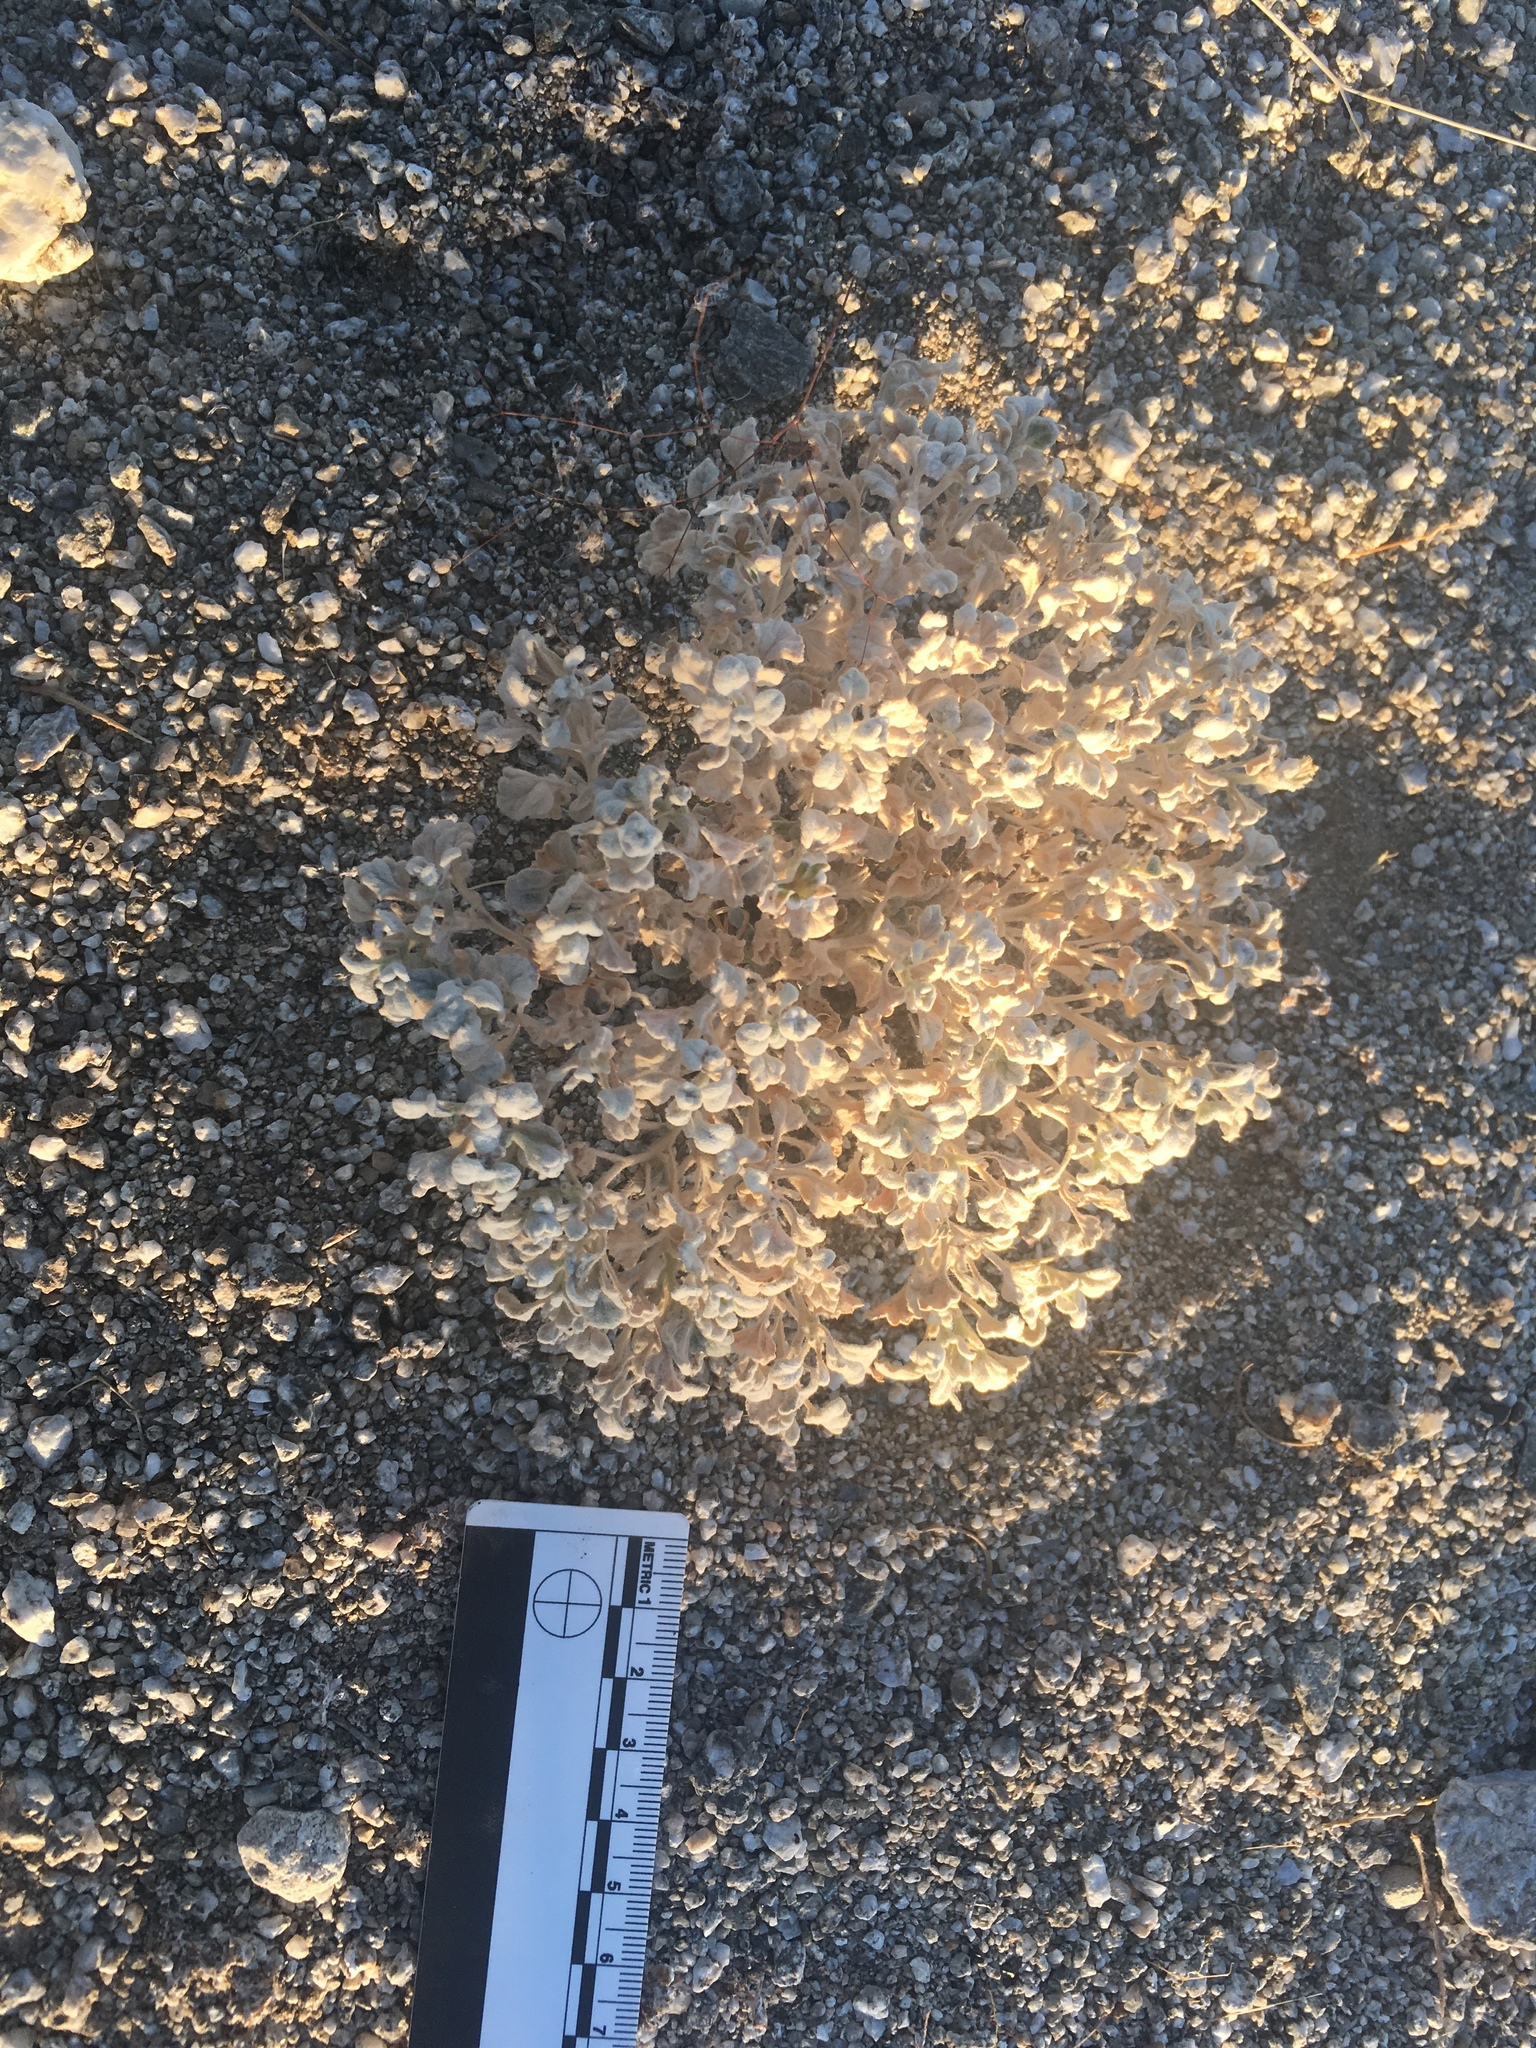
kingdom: Plantae
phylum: Tracheophyta
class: Magnoliopsida
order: Asterales
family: Asteraceae
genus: Psathyrotes
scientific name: Psathyrotes ramosissima
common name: Turtleback
